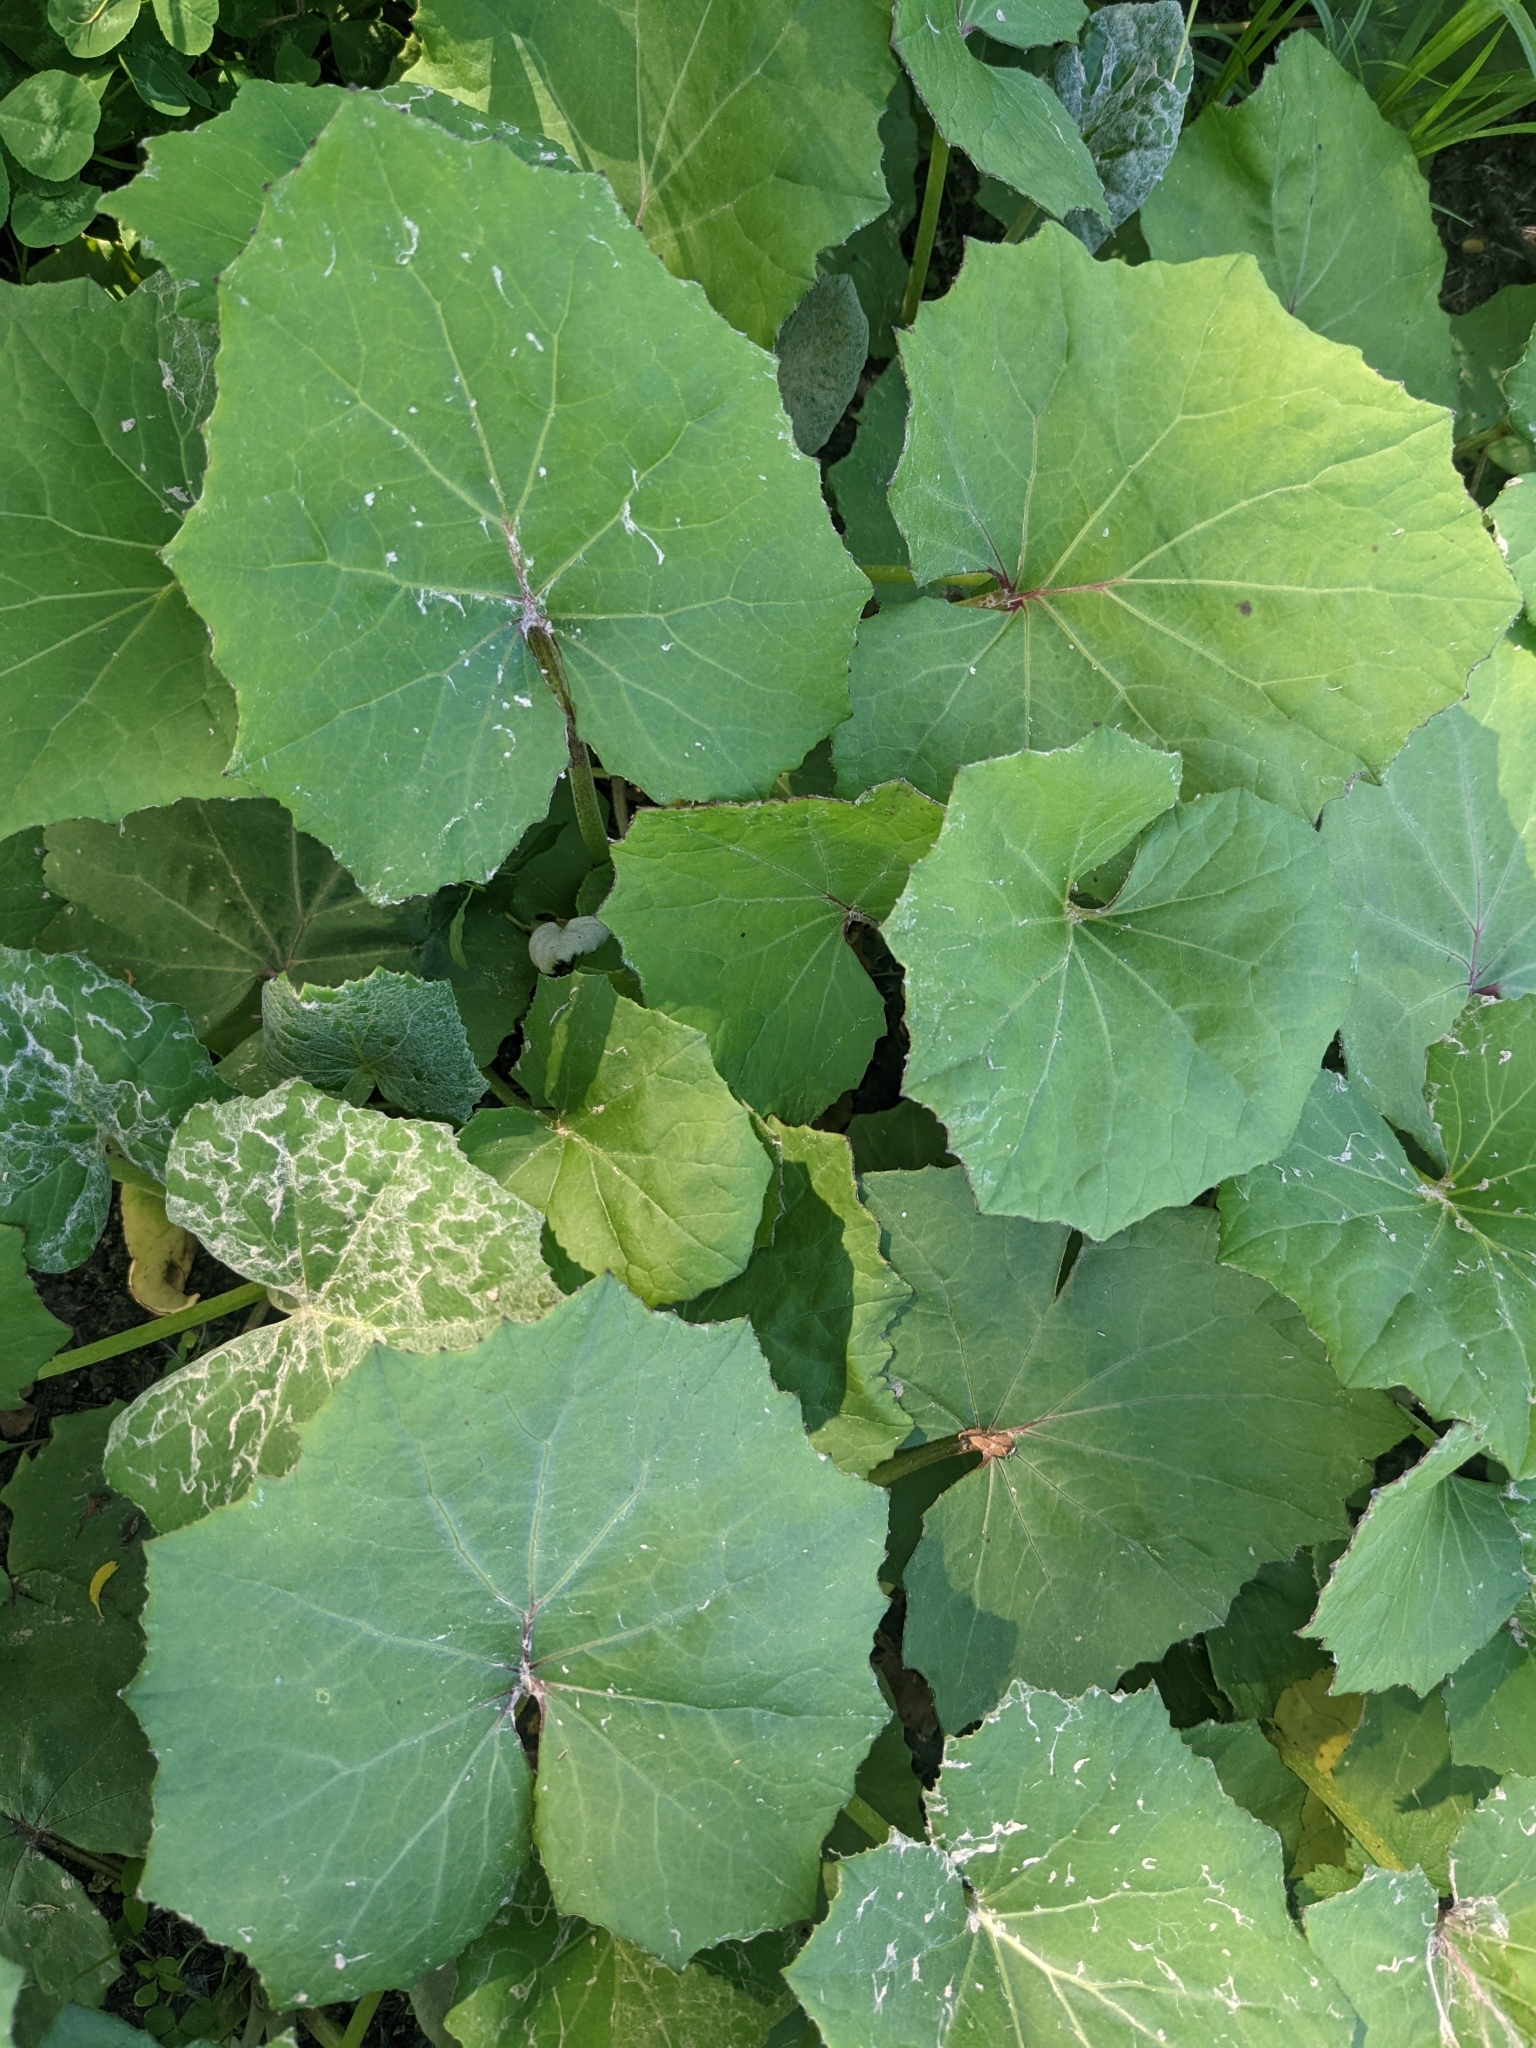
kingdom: Plantae
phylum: Tracheophyta
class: Magnoliopsida
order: Asterales
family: Asteraceae
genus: Tussilago
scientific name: Tussilago farfara
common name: Coltsfoot
